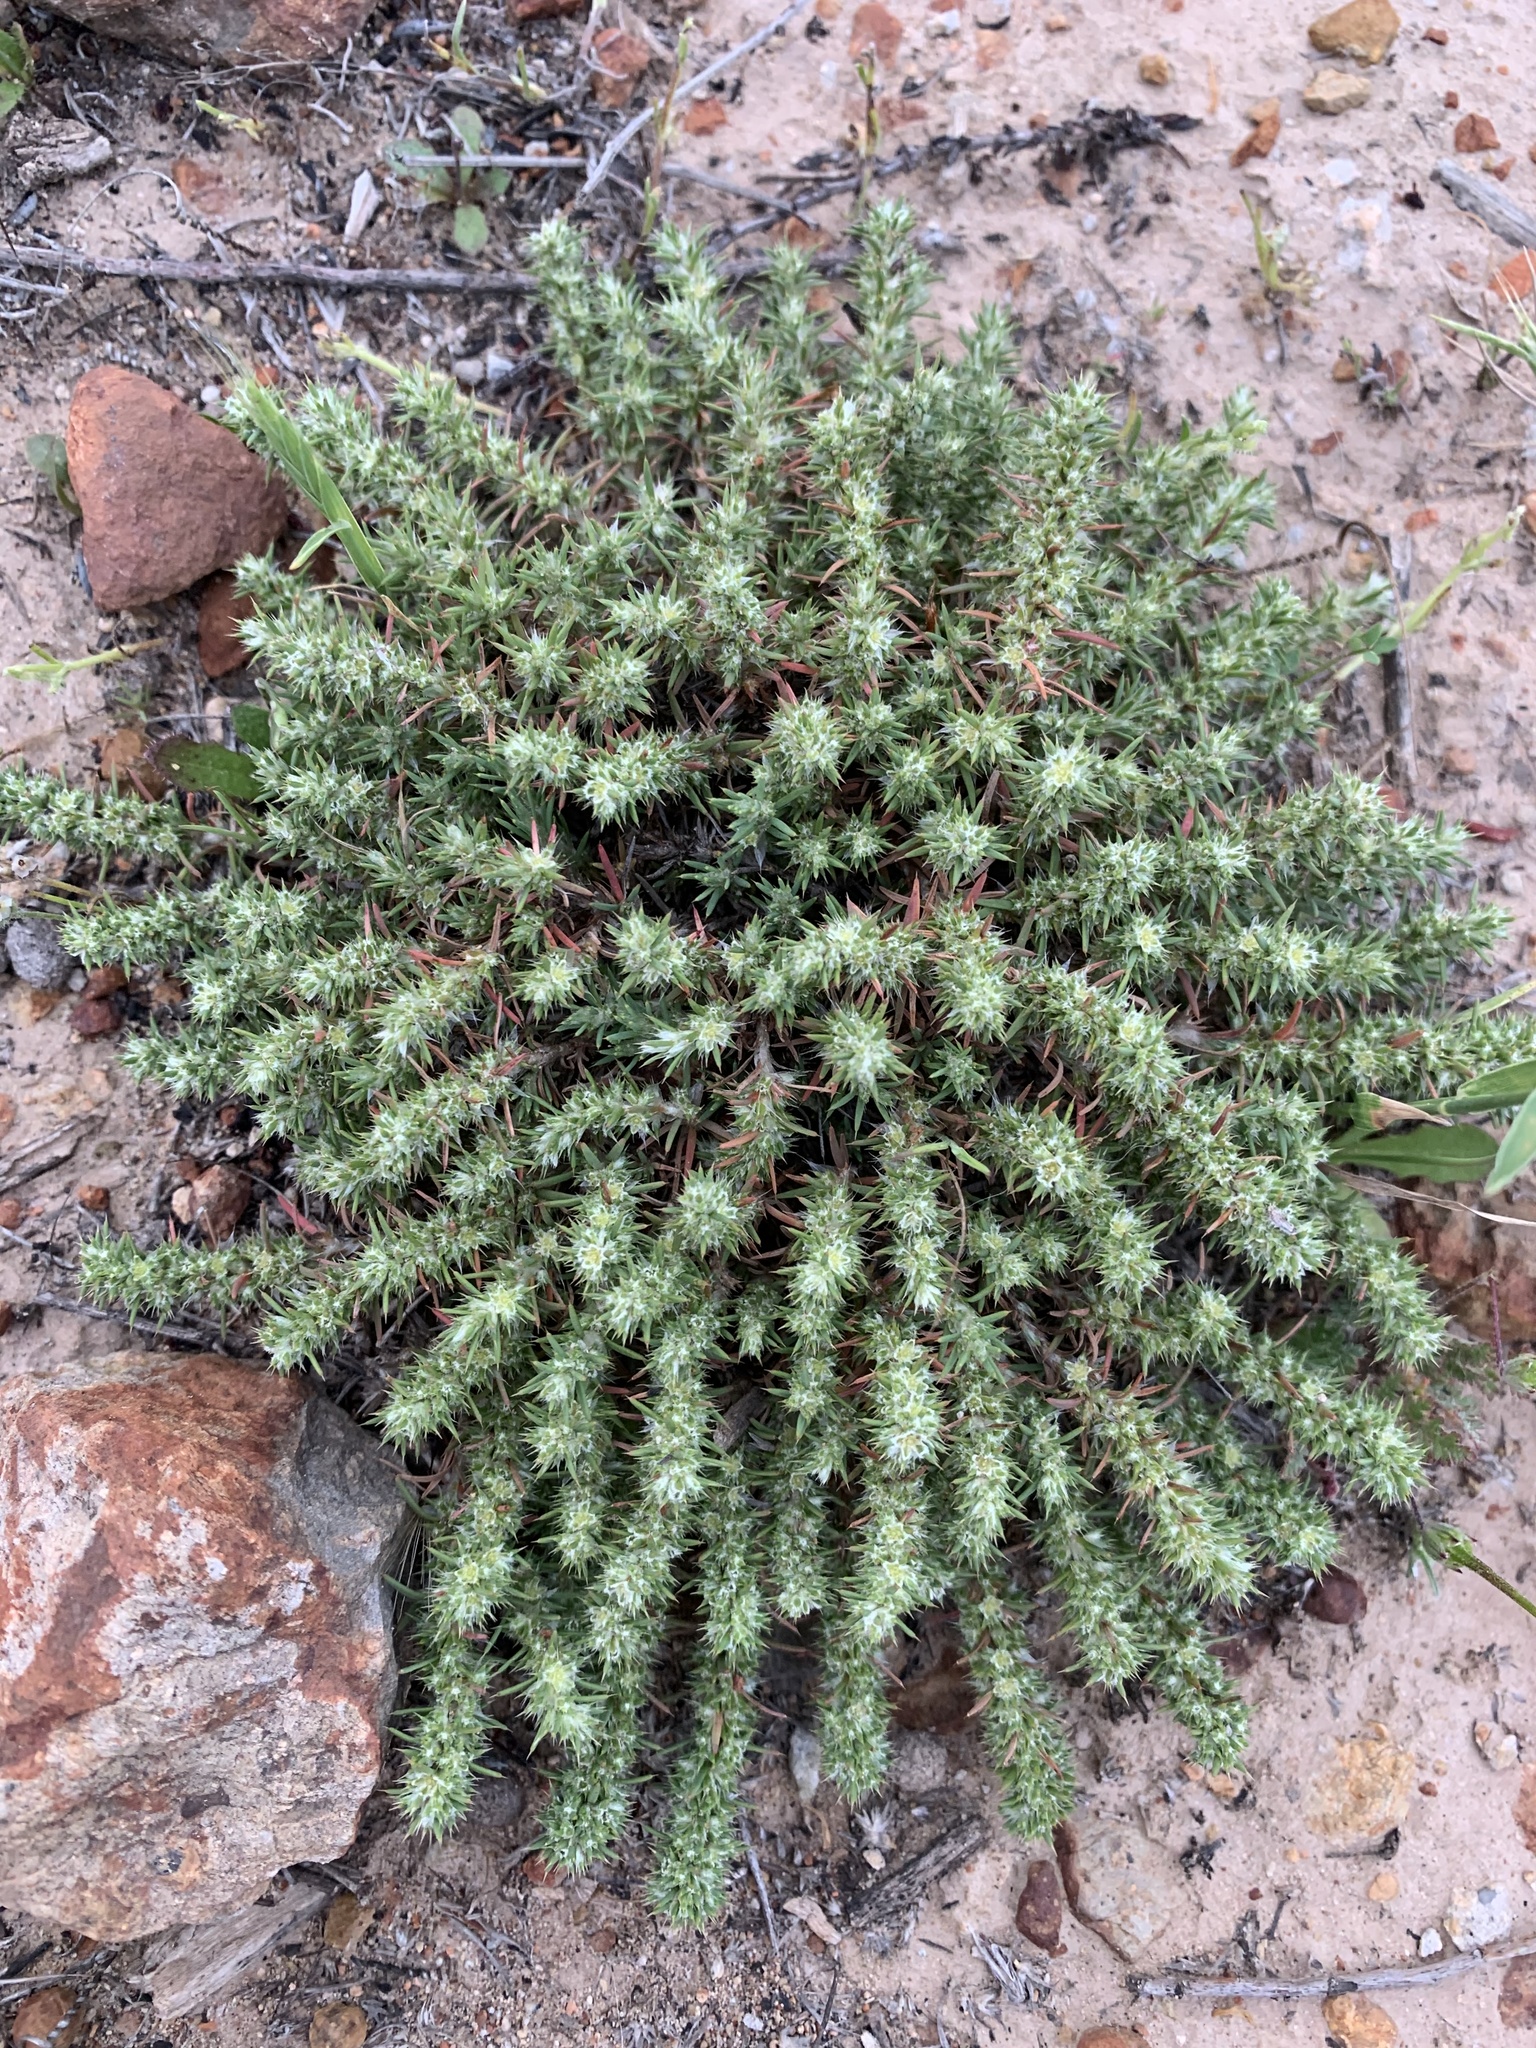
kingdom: Plantae
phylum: Tracheophyta
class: Magnoliopsida
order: Caryophyllales
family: Caryophyllaceae
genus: Cardionema
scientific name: Cardionema ramosissima
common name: Sandcarpet
